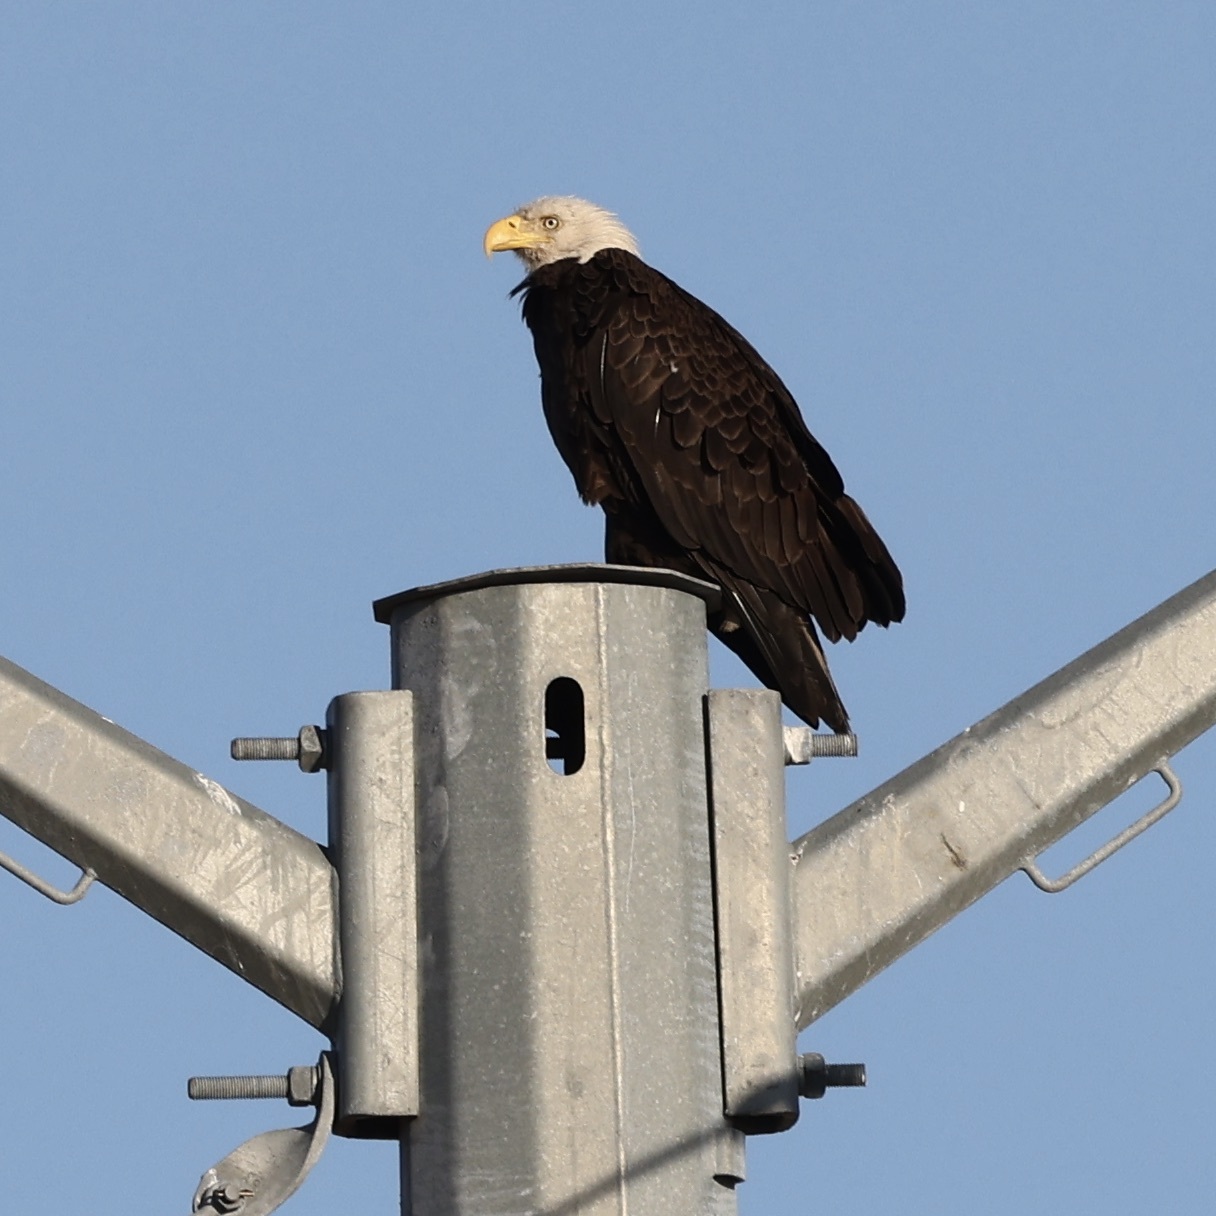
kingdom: Animalia
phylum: Chordata
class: Aves
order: Accipitriformes
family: Accipitridae
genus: Haliaeetus
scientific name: Haliaeetus leucocephalus
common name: Bald eagle
